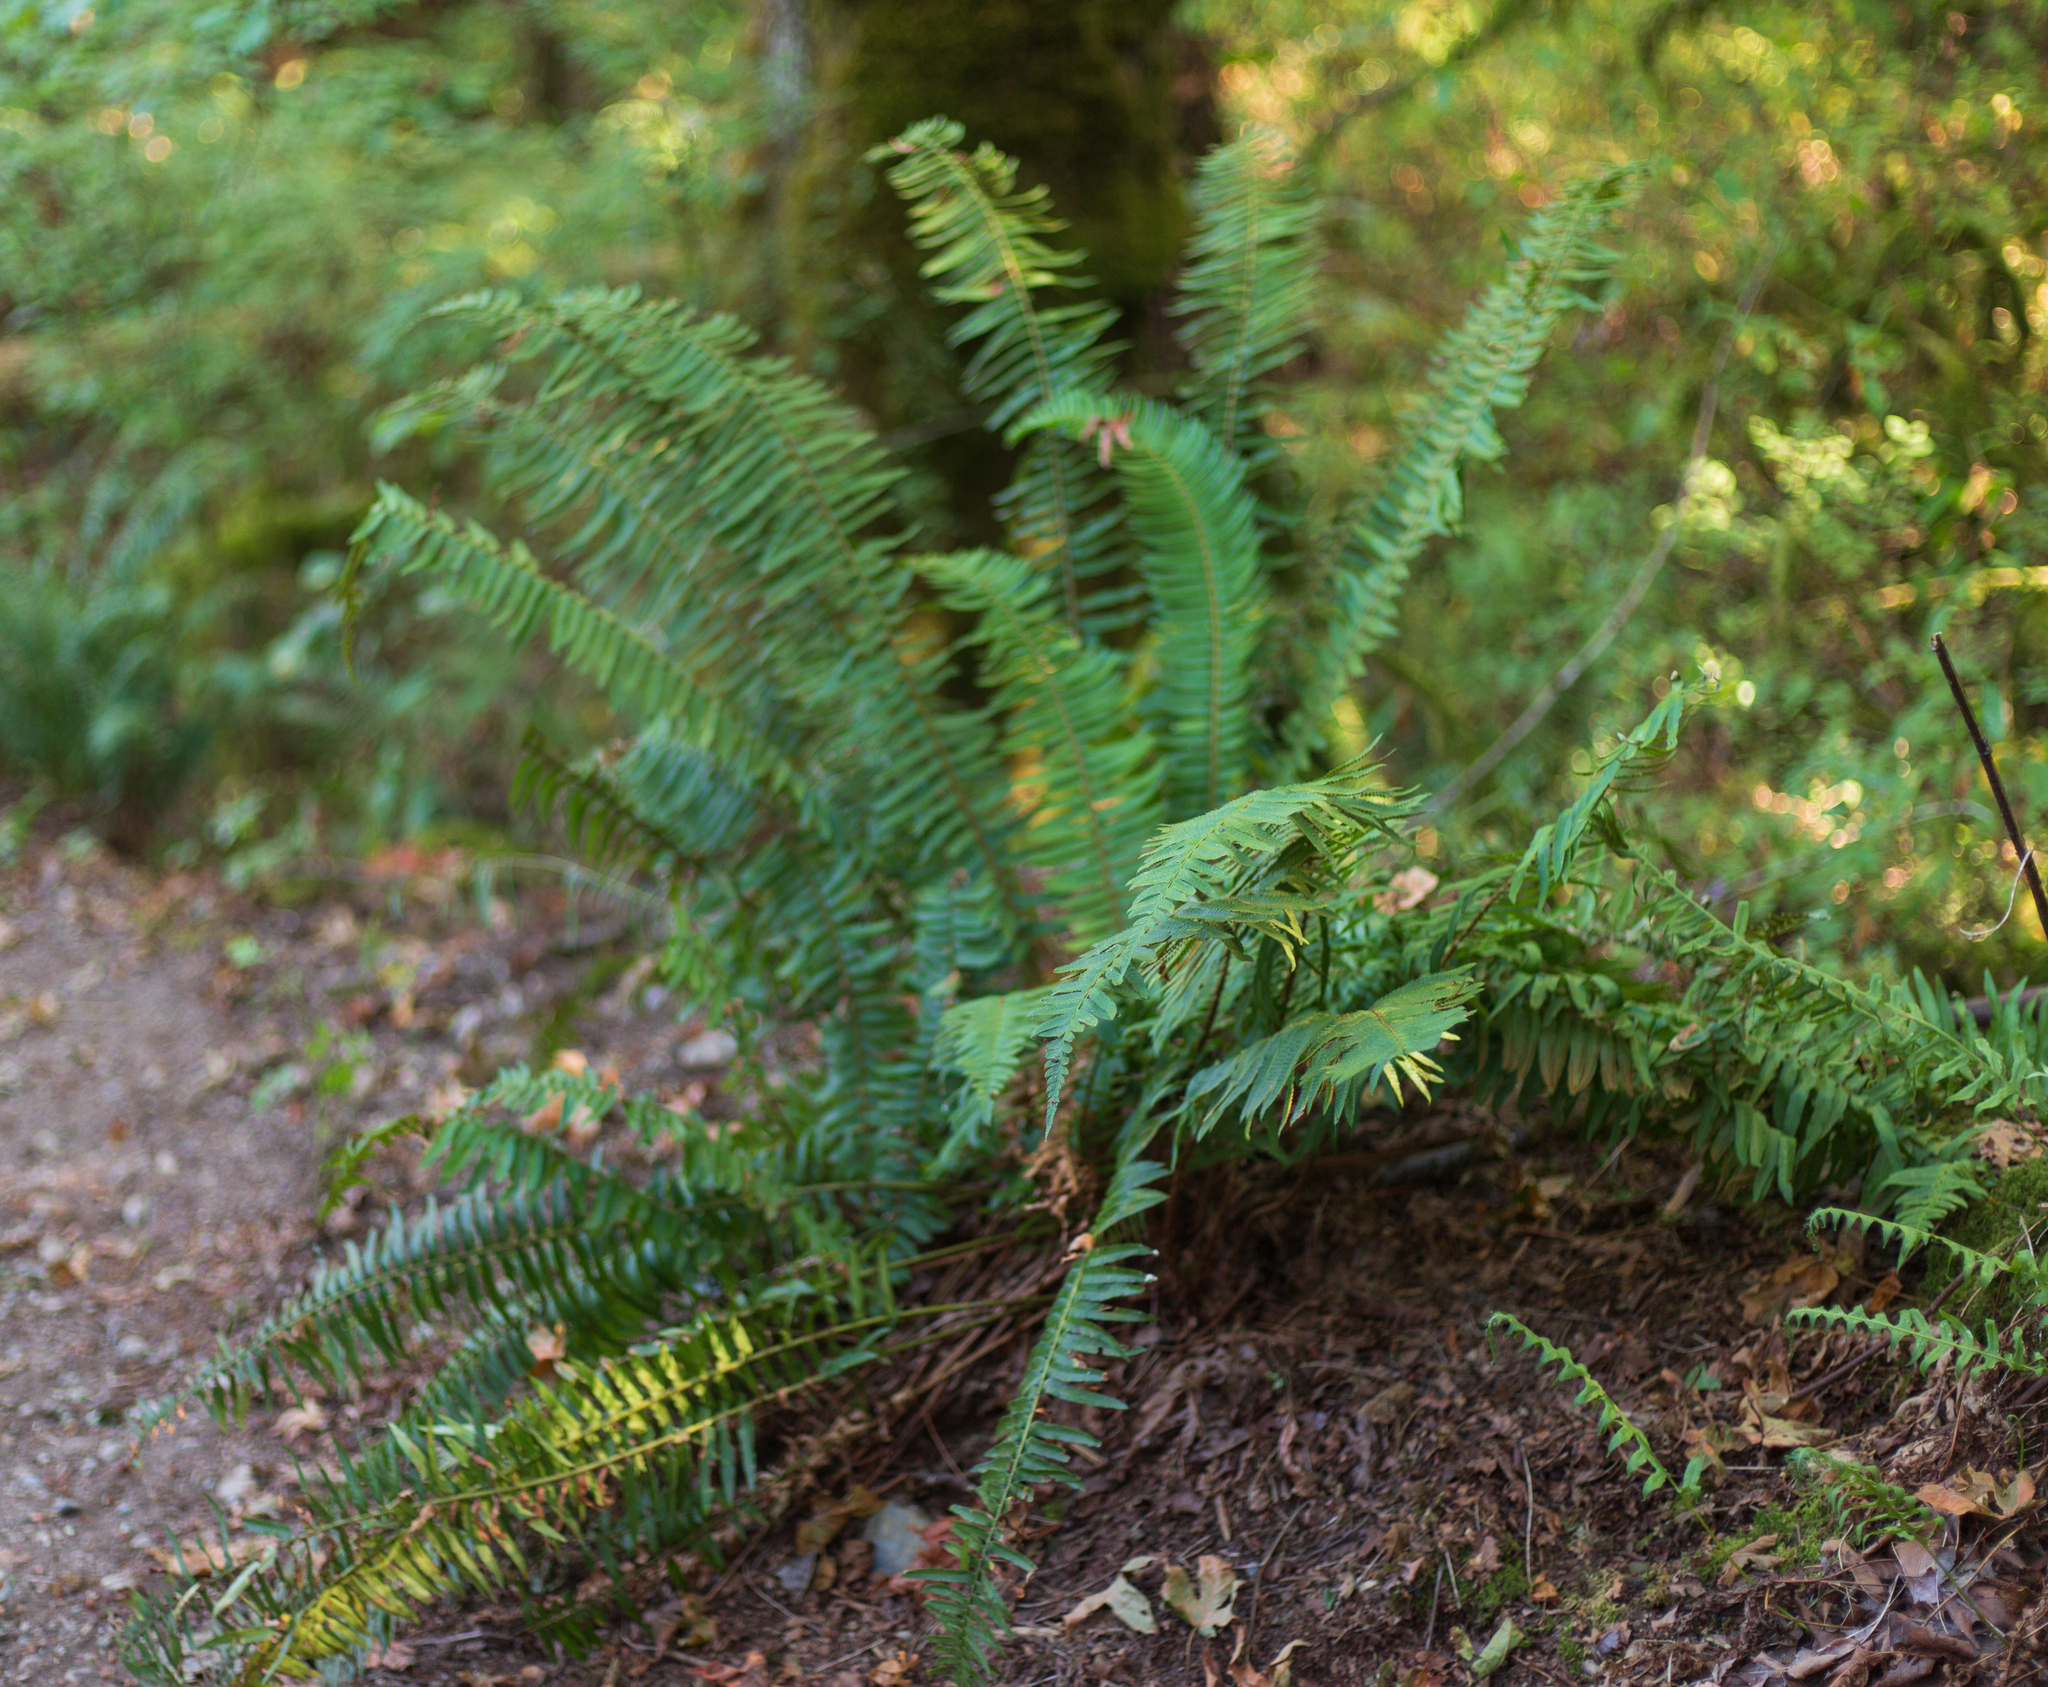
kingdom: Plantae
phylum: Tracheophyta
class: Polypodiopsida
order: Polypodiales
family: Dryopteridaceae
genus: Polystichum
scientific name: Polystichum munitum
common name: Western sword-fern
